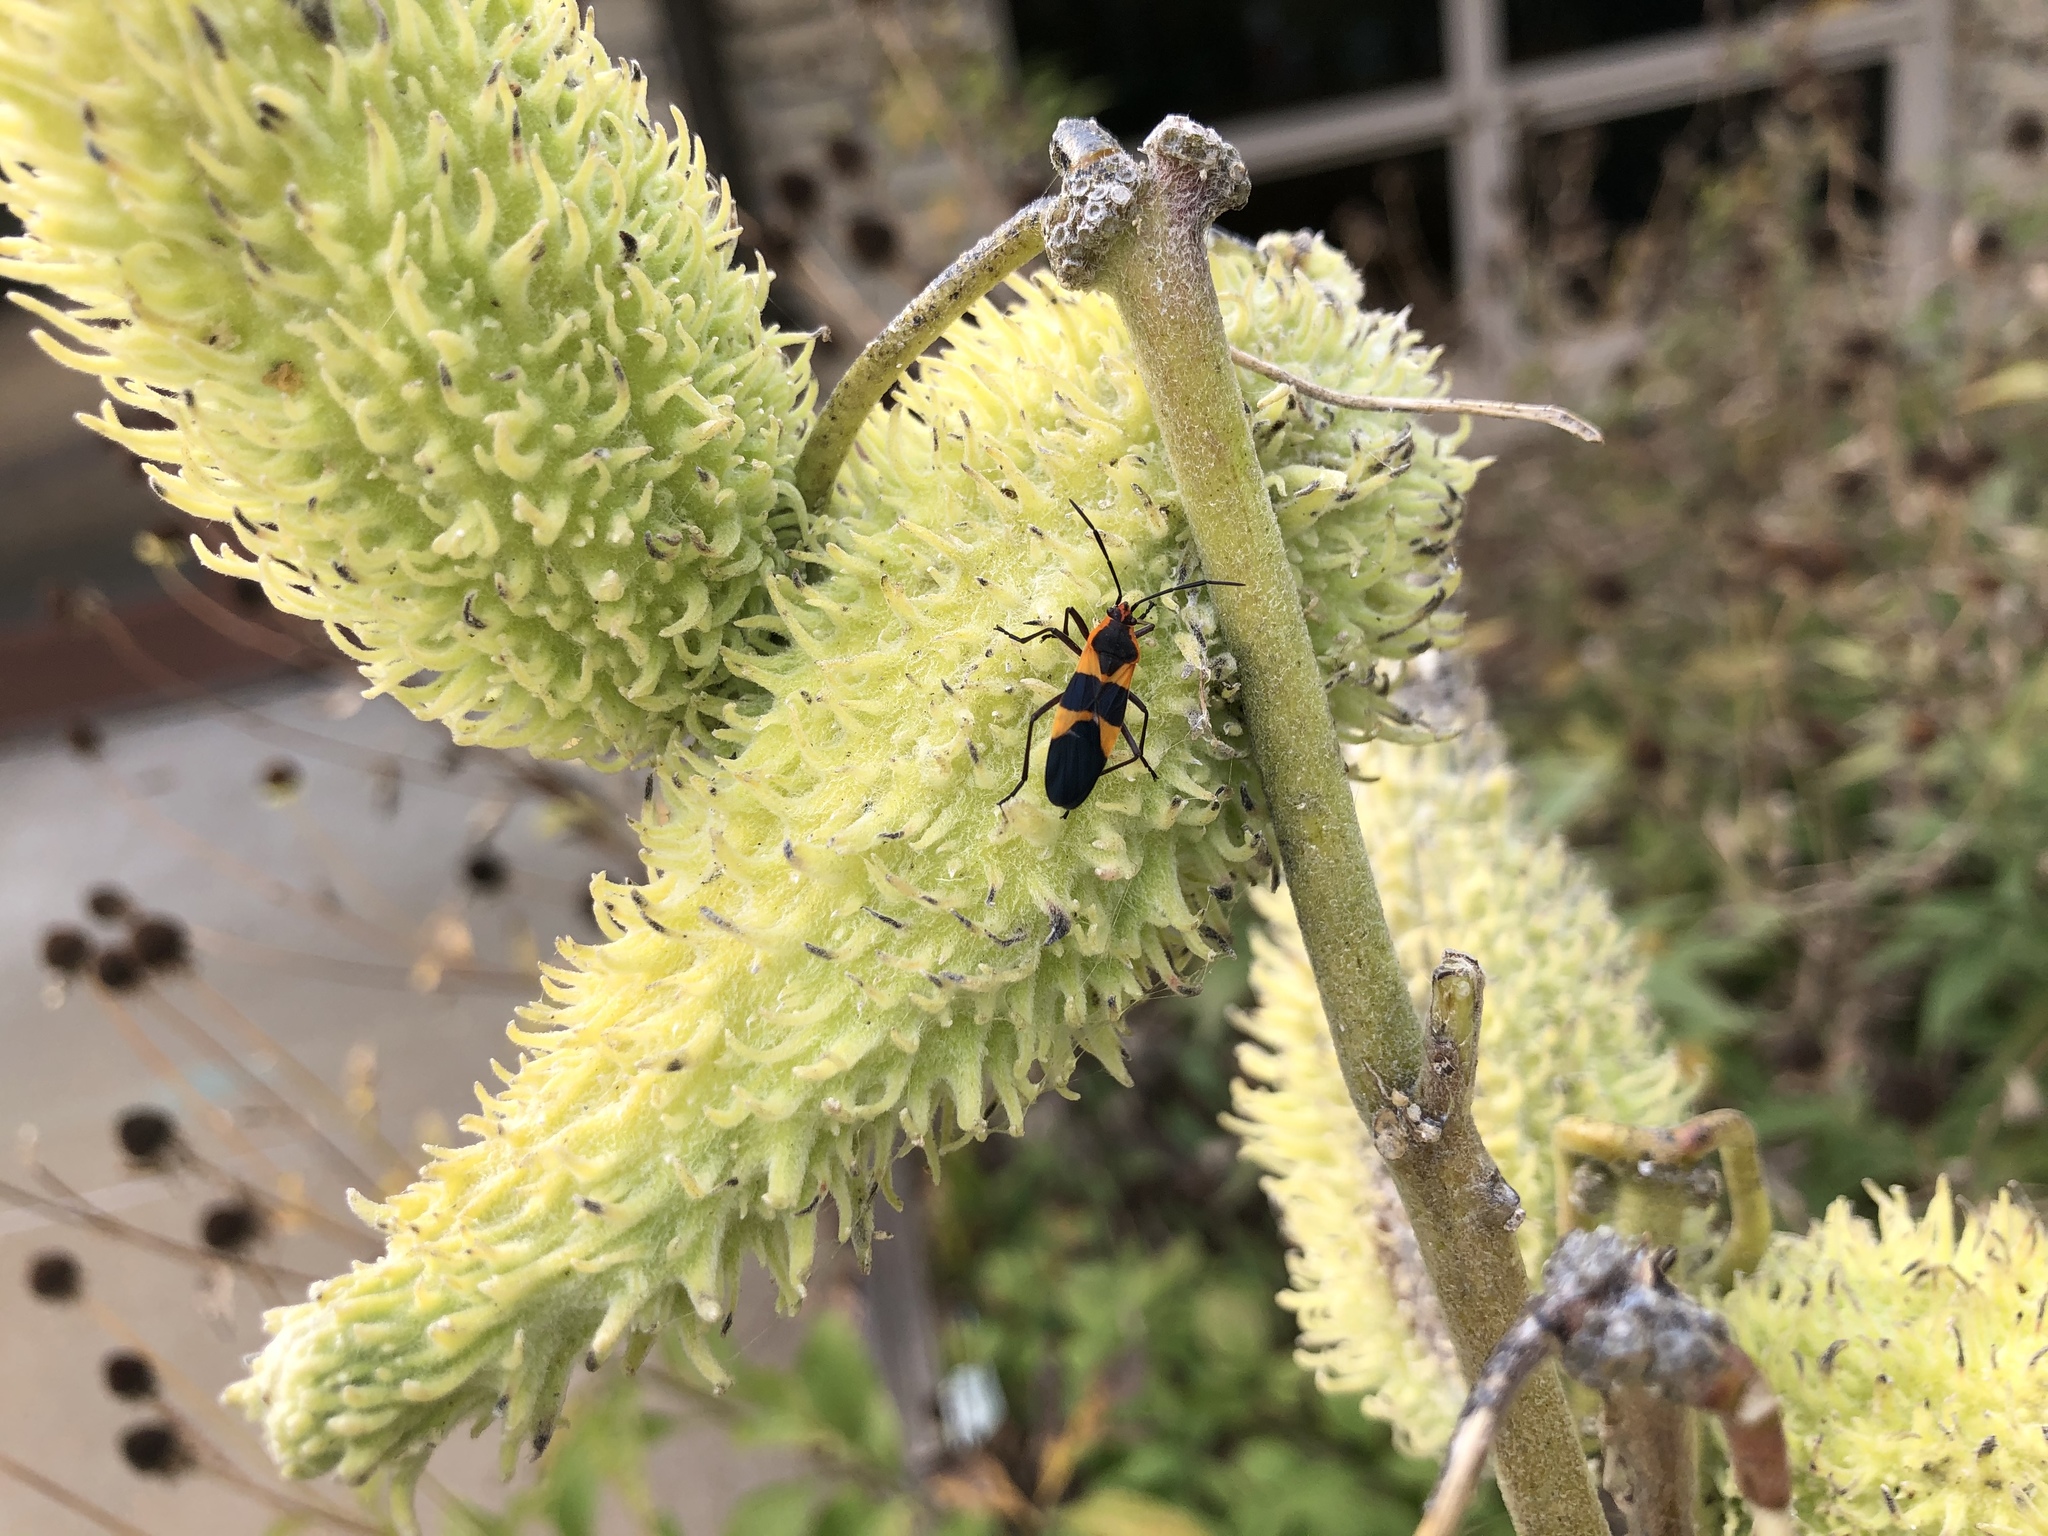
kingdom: Animalia
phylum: Arthropoda
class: Insecta
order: Hemiptera
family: Lygaeidae
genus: Oncopeltus
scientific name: Oncopeltus fasciatus
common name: Large milkweed bug
